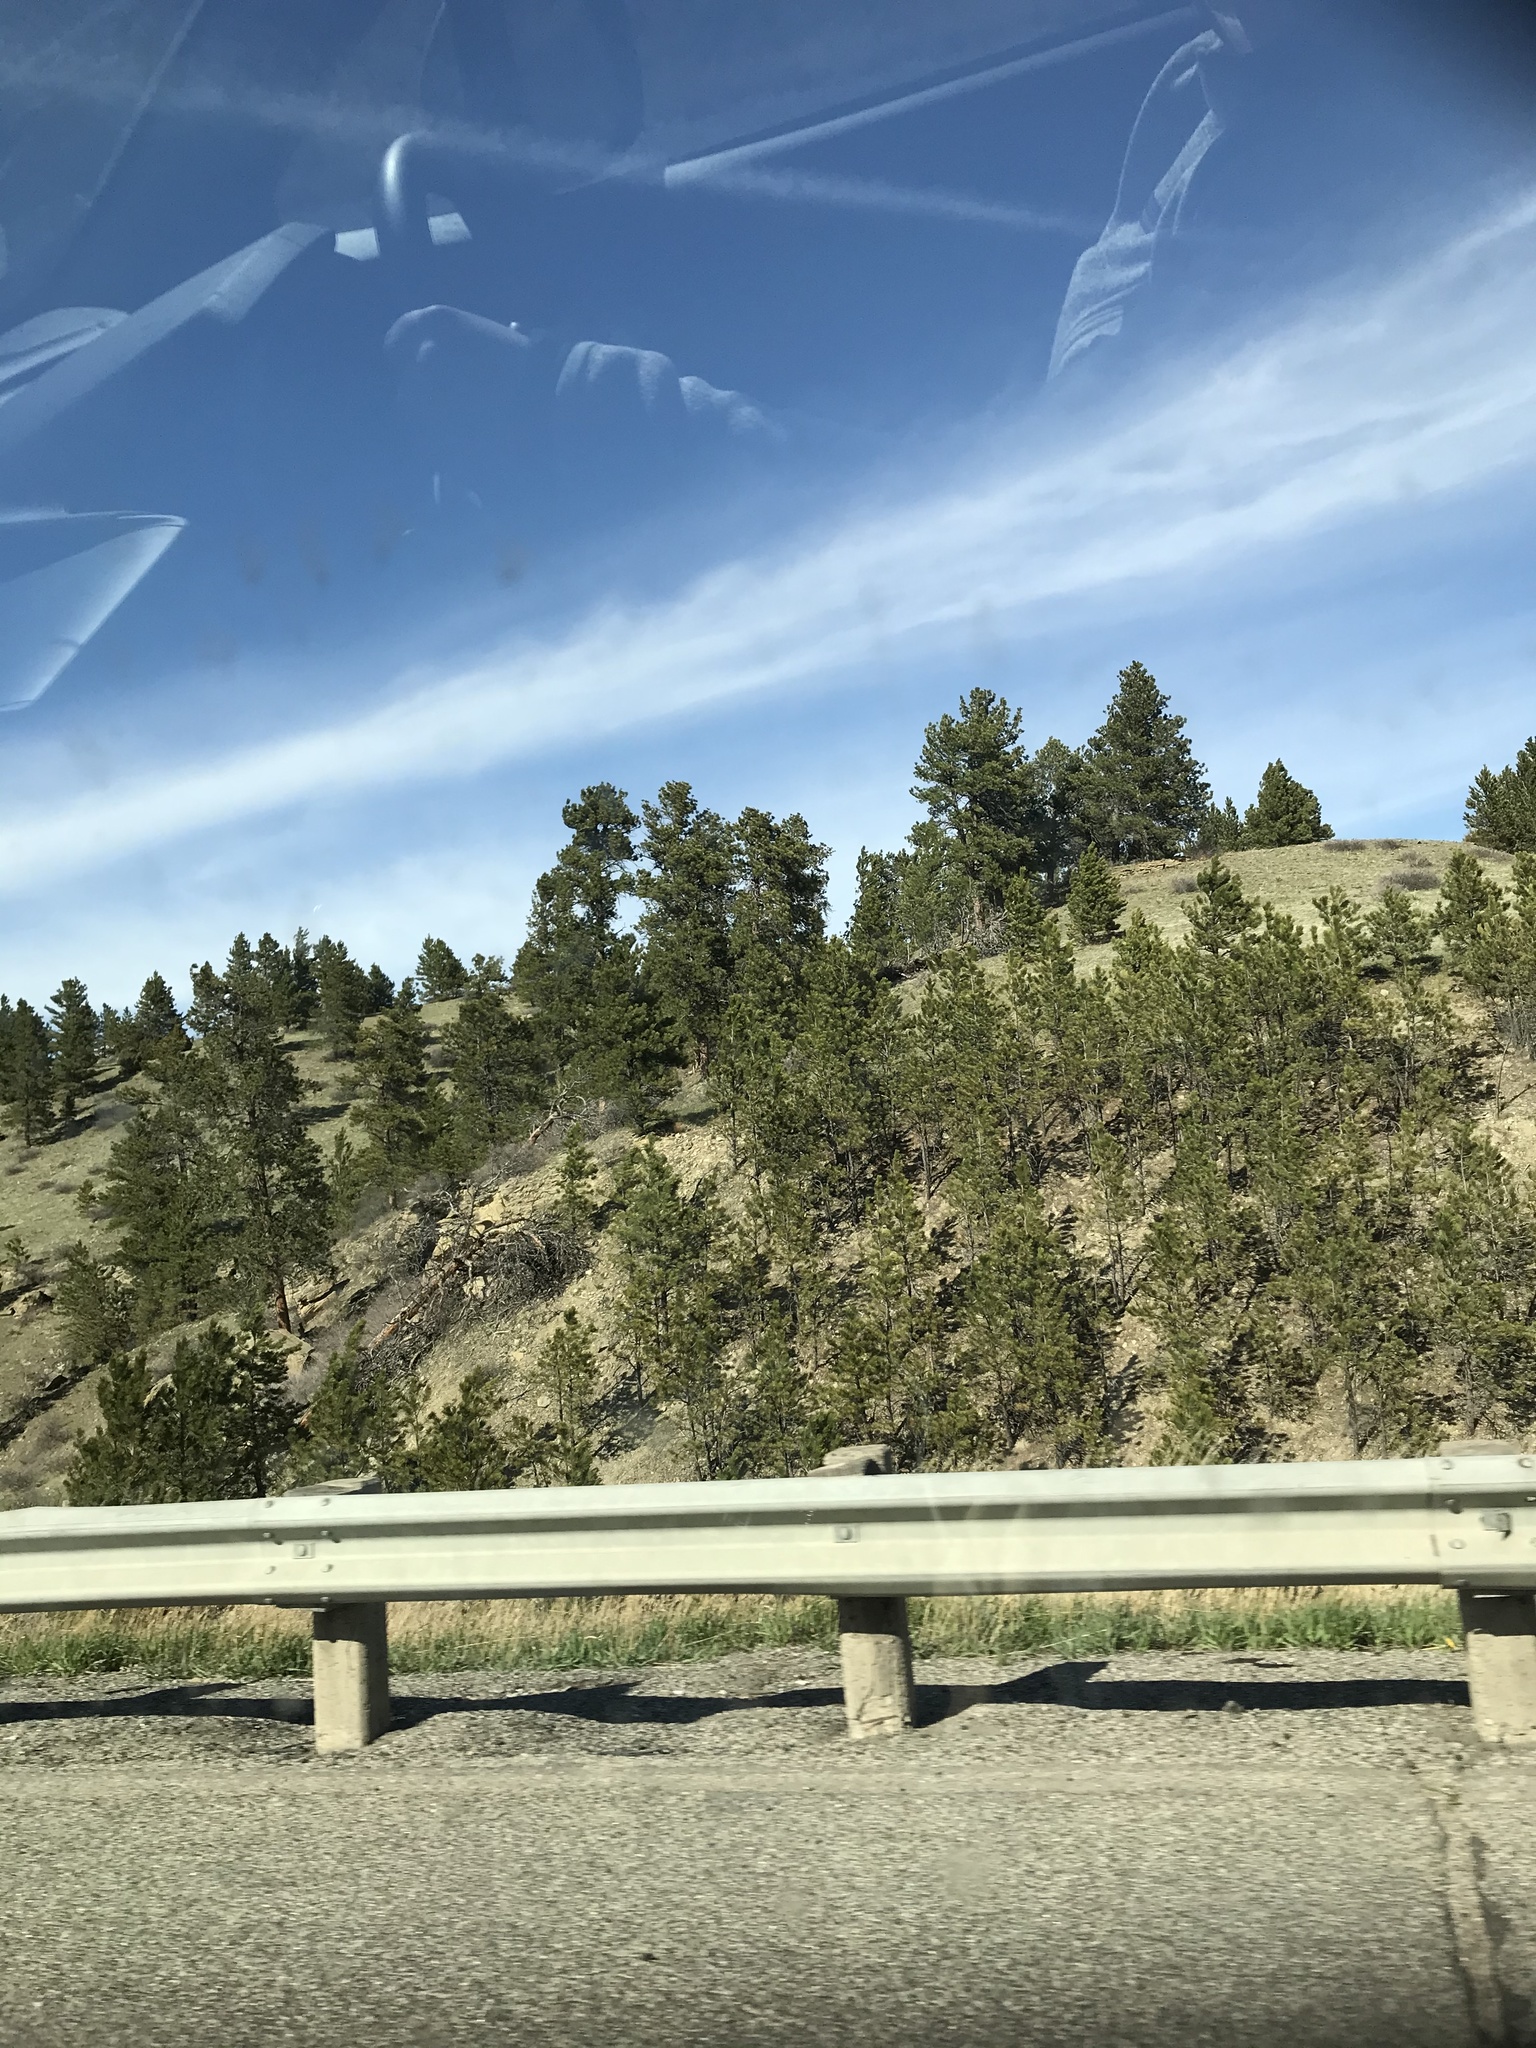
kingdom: Plantae
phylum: Tracheophyta
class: Pinopsida
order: Pinales
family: Pinaceae
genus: Pinus
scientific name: Pinus ponderosa
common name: Western yellow-pine
